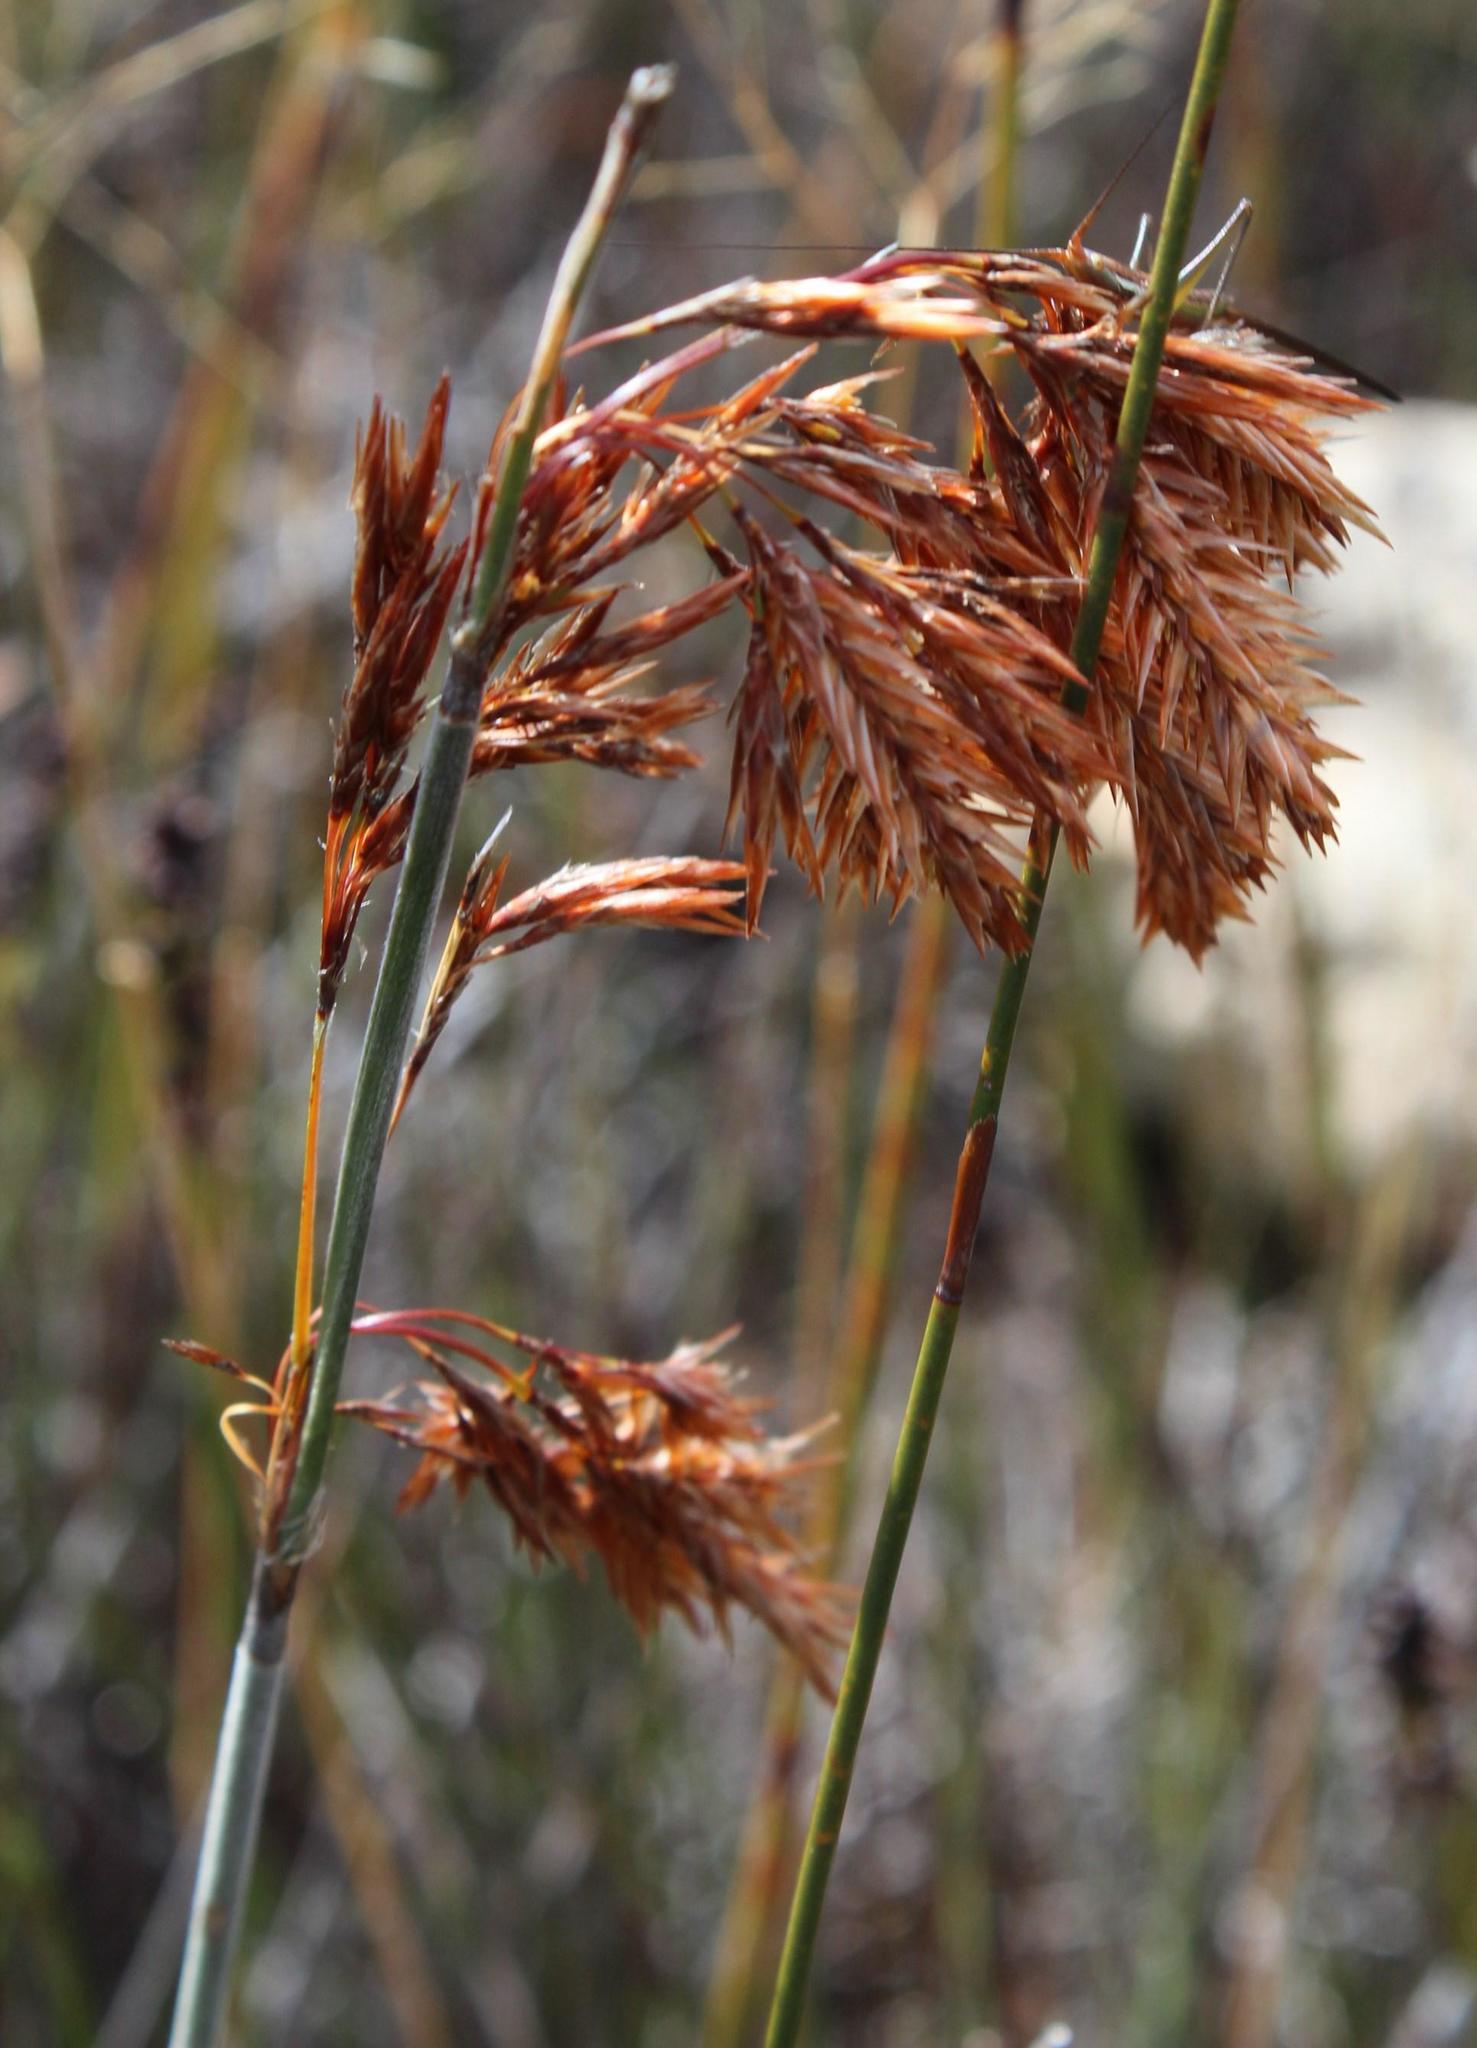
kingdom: Plantae
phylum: Tracheophyta
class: Liliopsida
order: Poales
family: Restionaceae
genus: Thamnochortus
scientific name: Thamnochortus rigidus
